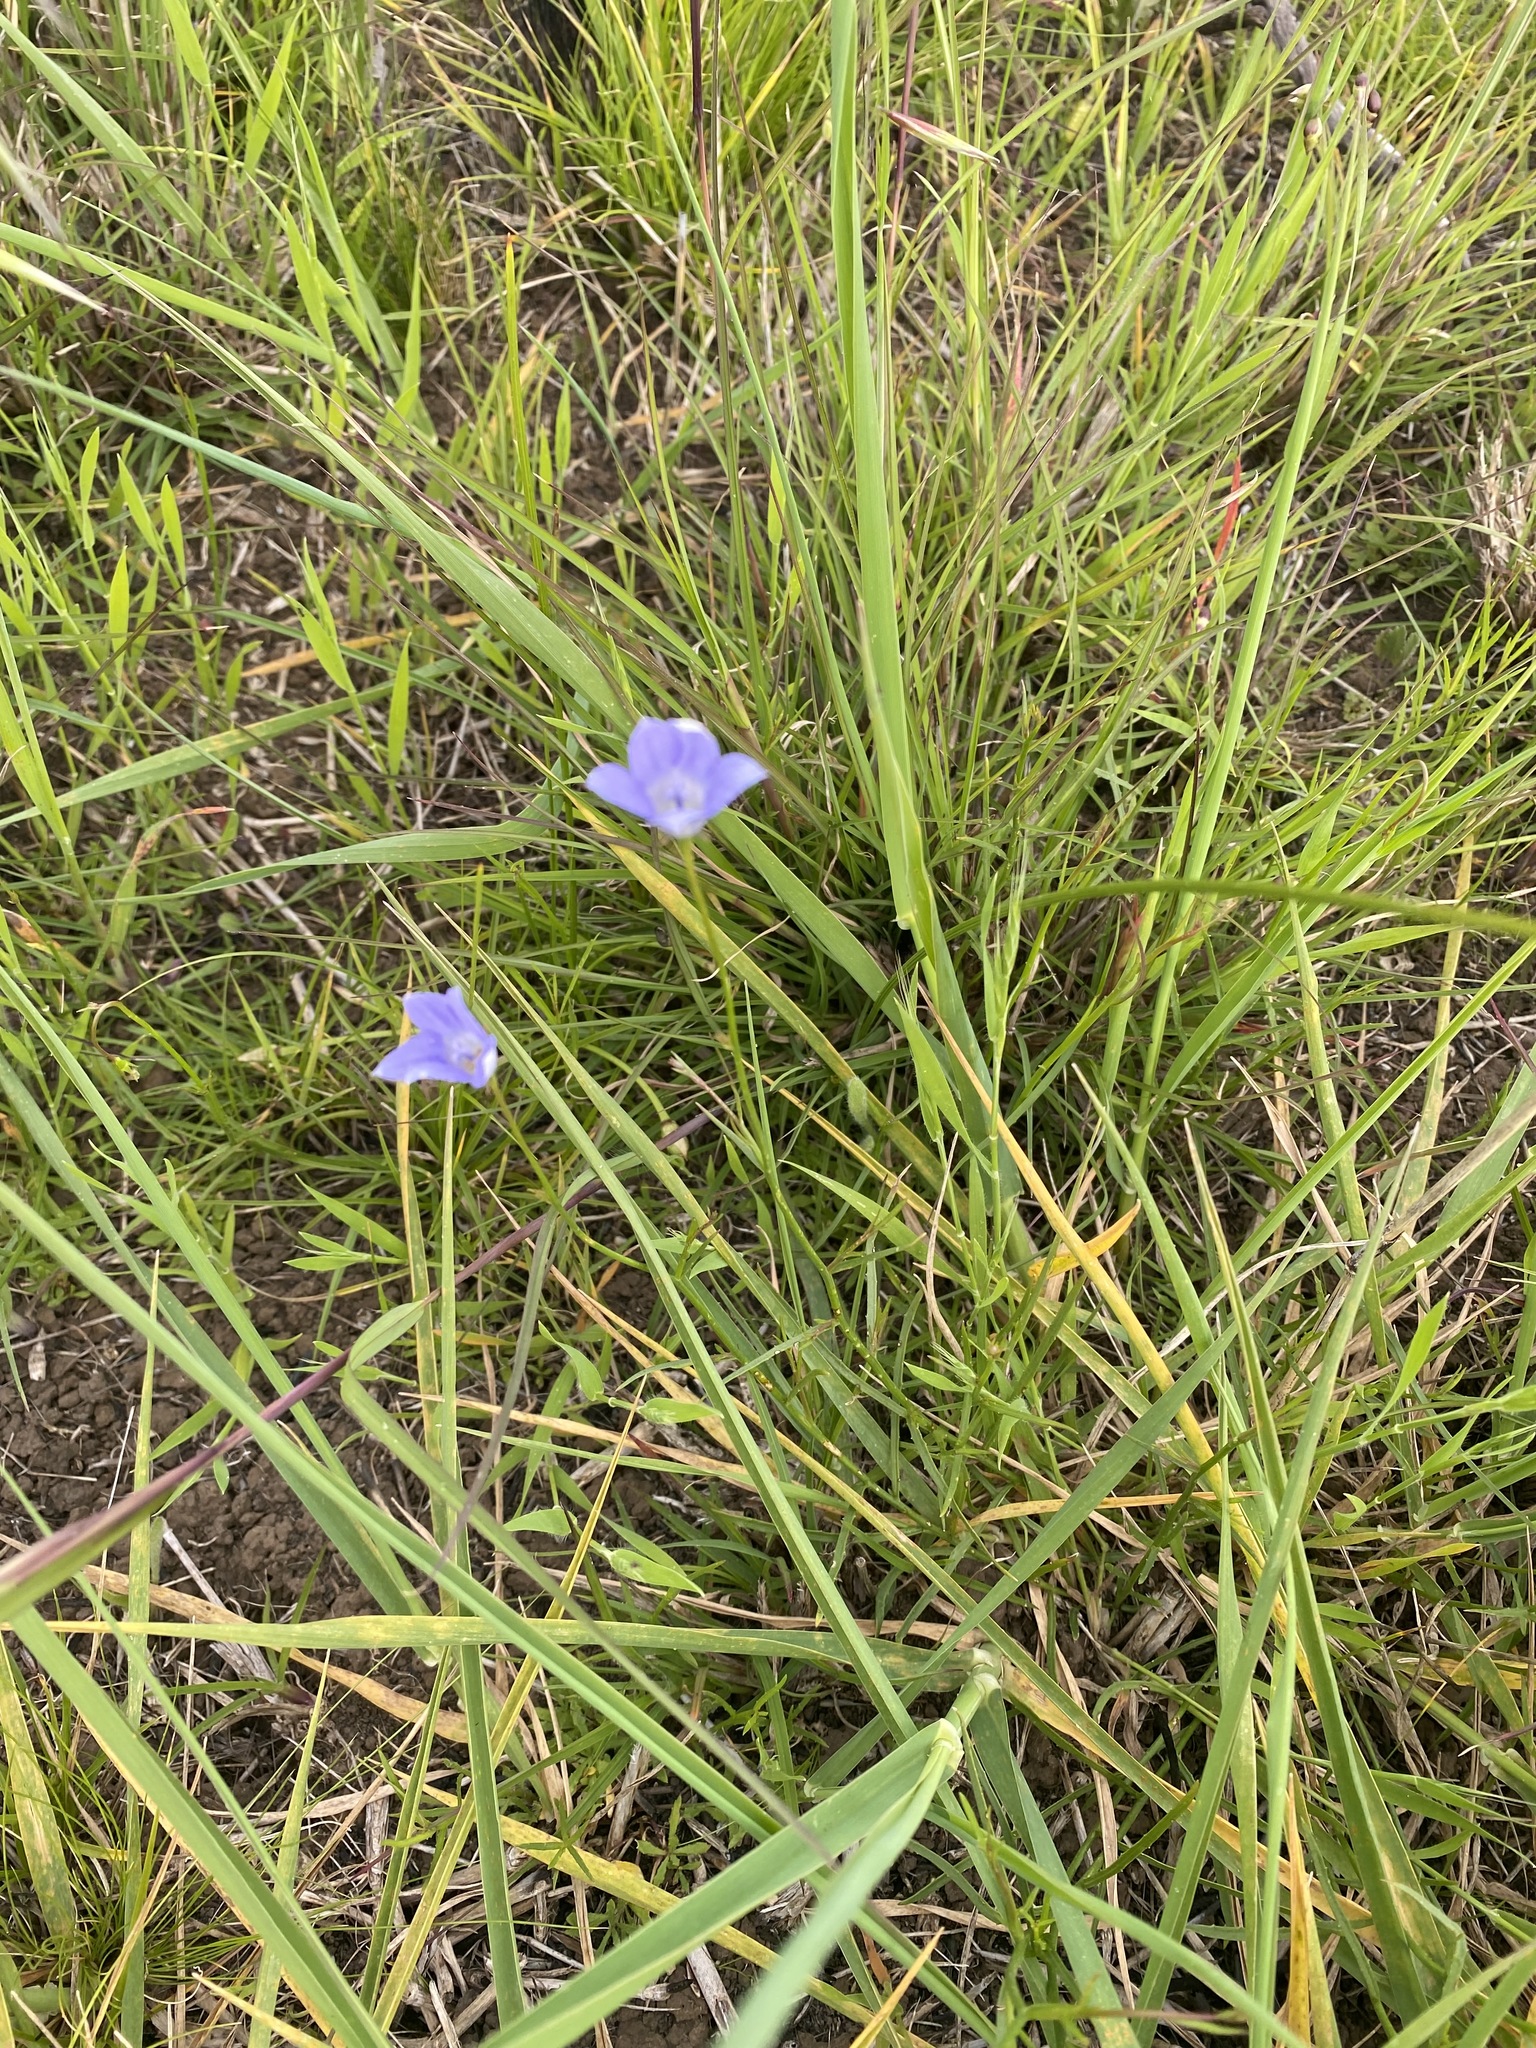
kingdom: Plantae
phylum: Tracheophyta
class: Magnoliopsida
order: Asterales
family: Campanulaceae
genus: Wahlenbergia
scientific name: Wahlenbergia capillaris
